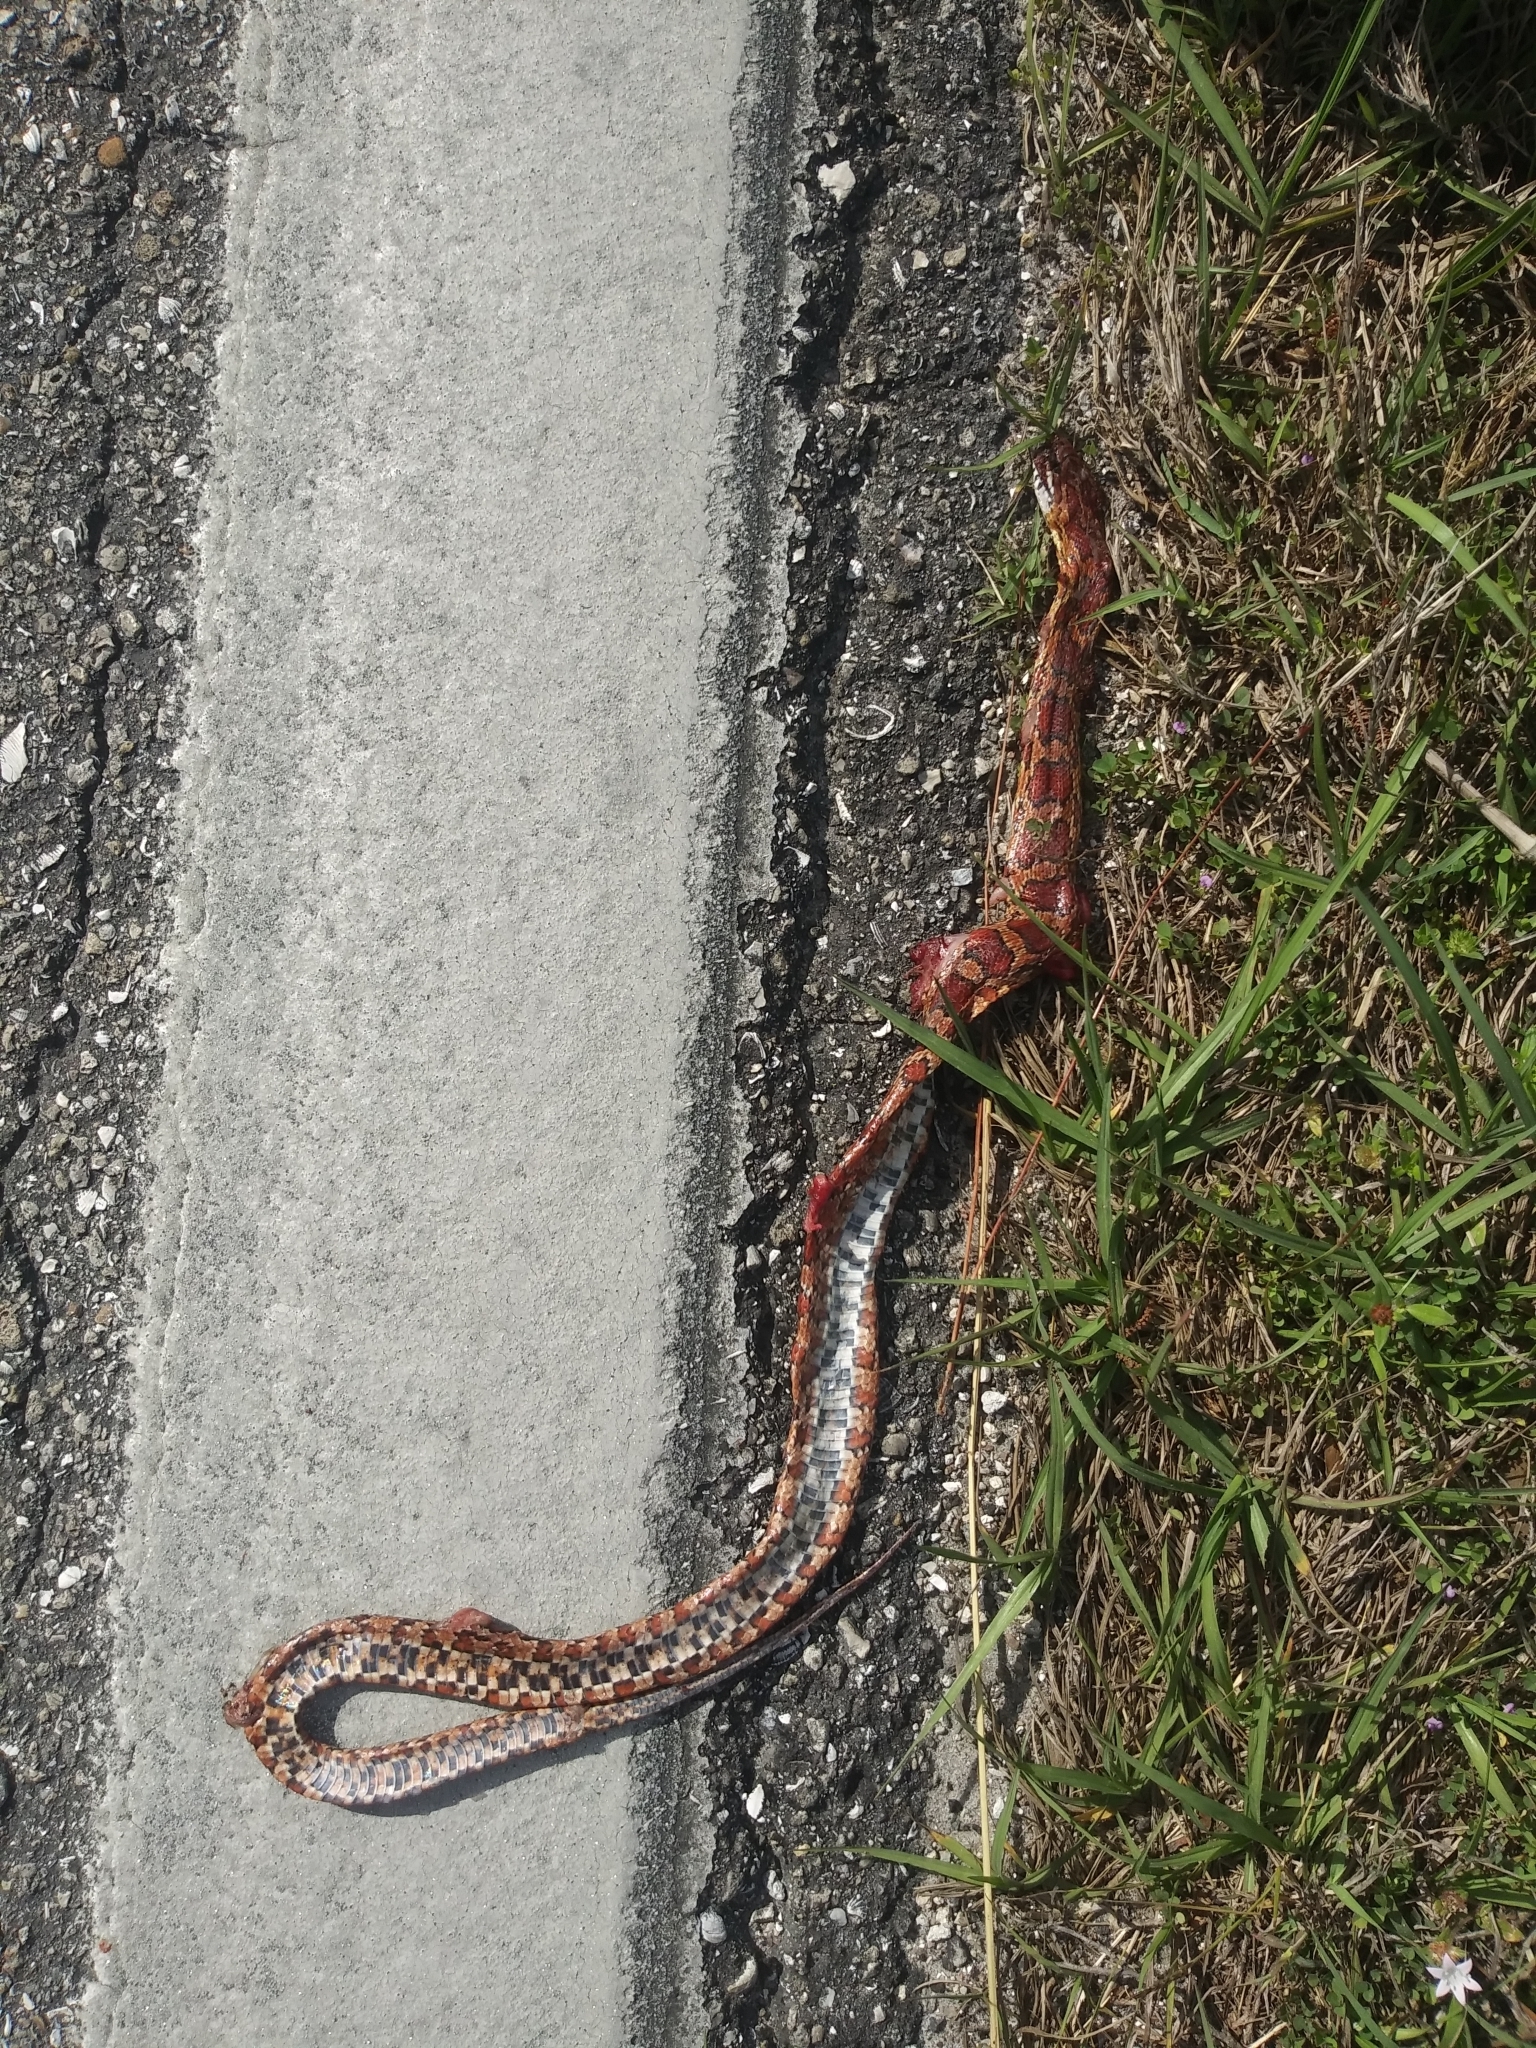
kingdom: Animalia
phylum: Chordata
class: Squamata
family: Colubridae
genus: Pantherophis
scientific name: Pantherophis guttatus
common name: Red cornsnake
